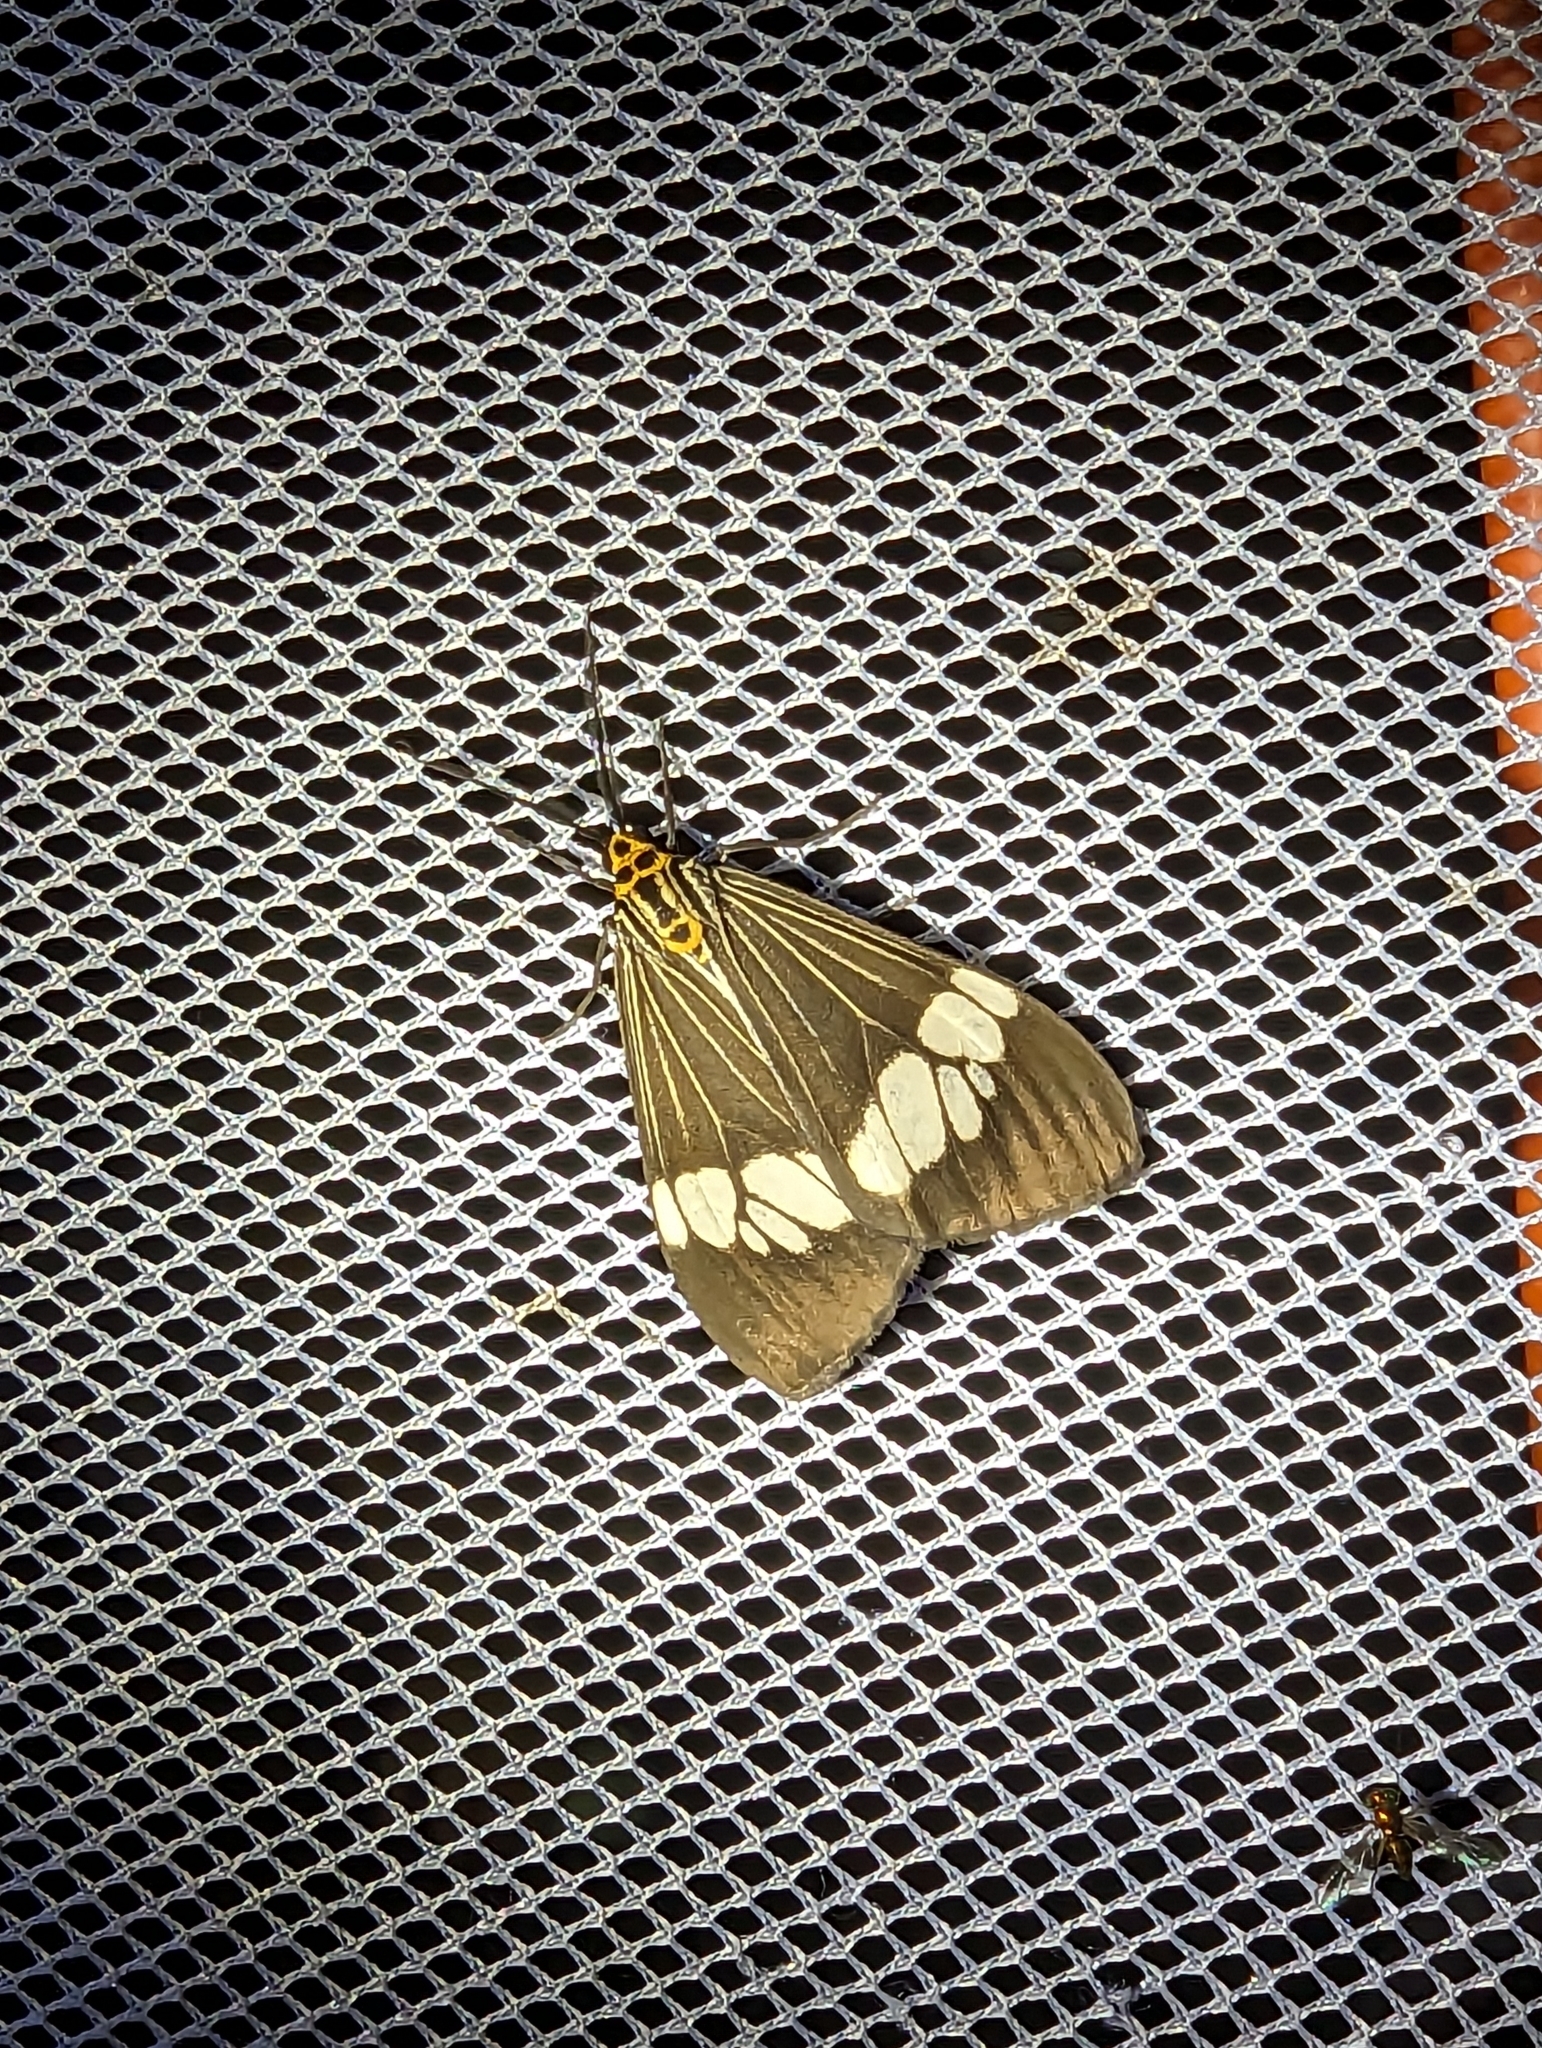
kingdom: Animalia
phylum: Arthropoda
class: Insecta
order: Lepidoptera
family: Erebidae
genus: Nyctemera
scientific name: Nyctemera baulus
